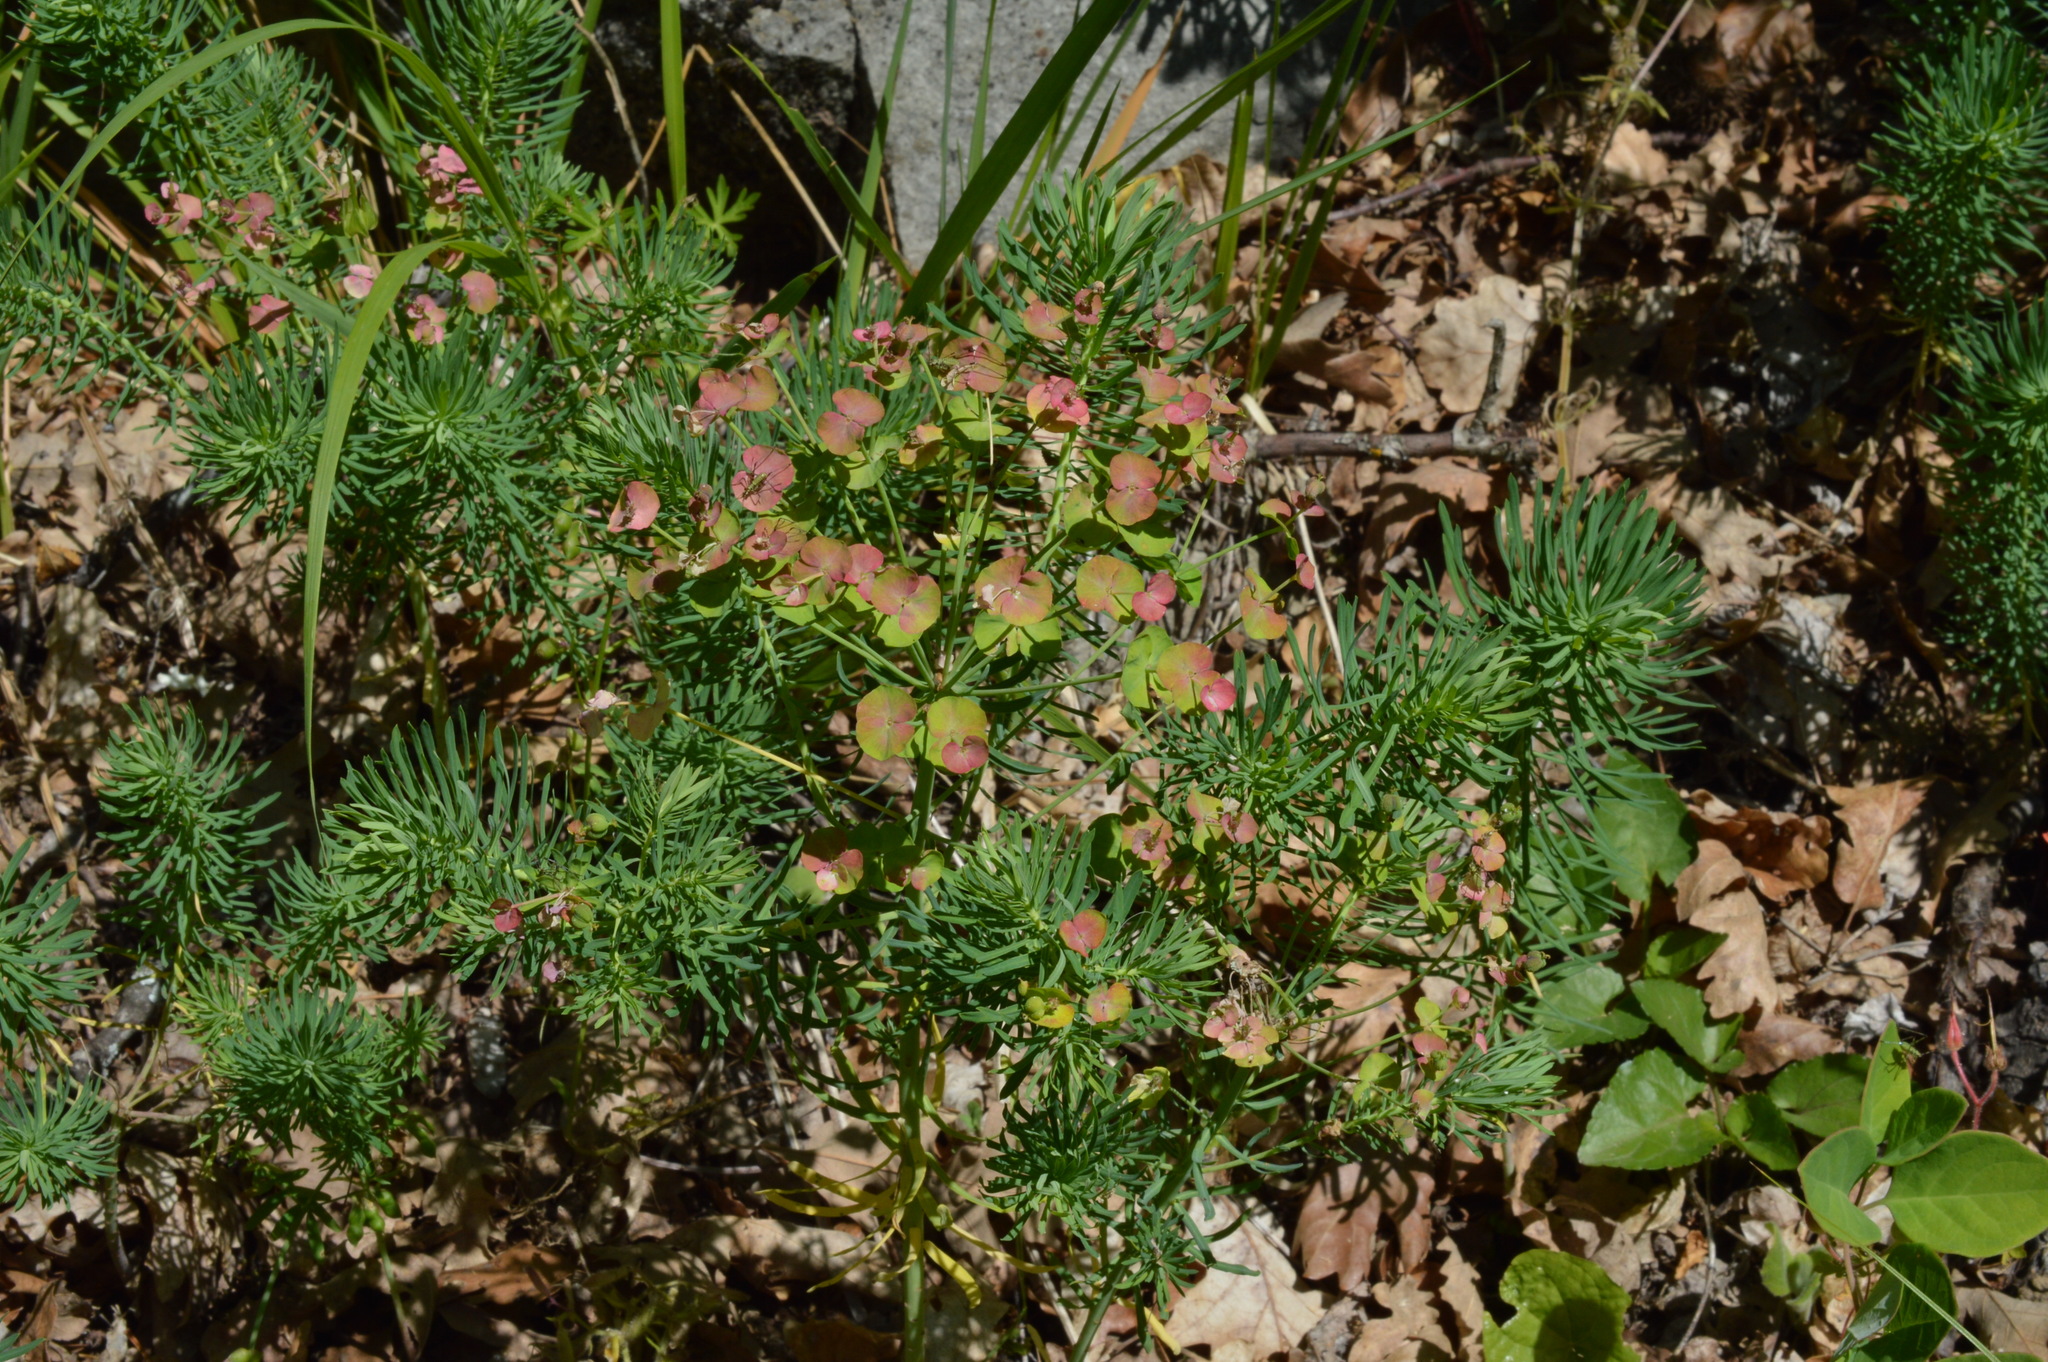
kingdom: Plantae
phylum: Tracheophyta
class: Magnoliopsida
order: Malpighiales
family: Euphorbiaceae
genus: Euphorbia
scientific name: Euphorbia cyparissias
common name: Cypress spurge
